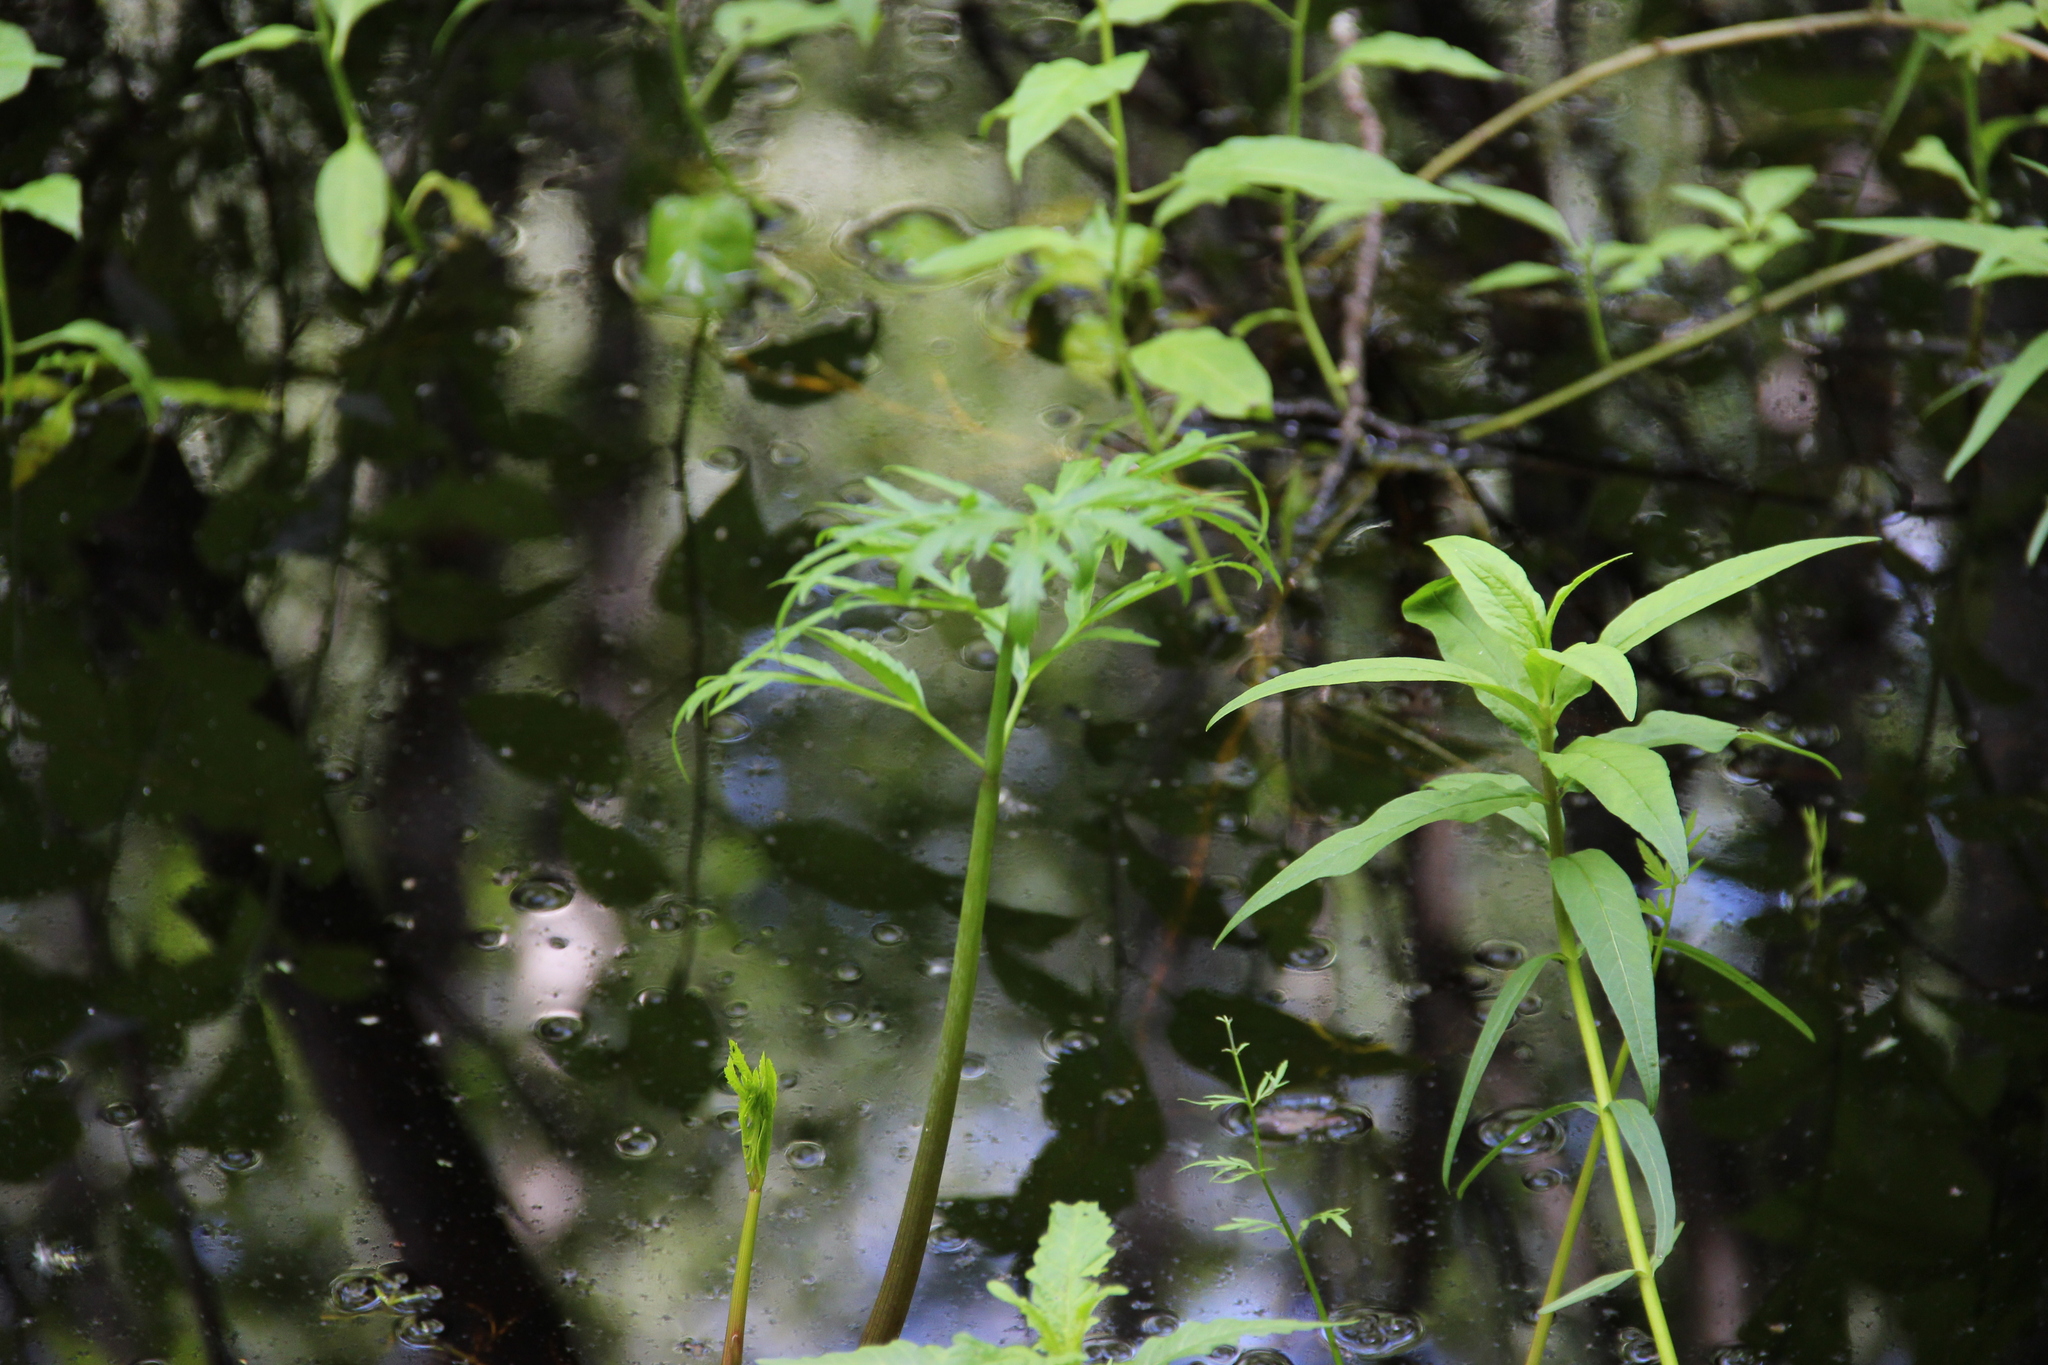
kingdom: Plantae
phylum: Tracheophyta
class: Magnoliopsida
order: Apiales
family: Apiaceae
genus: Cicuta
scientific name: Cicuta virosa
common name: Cowbane
